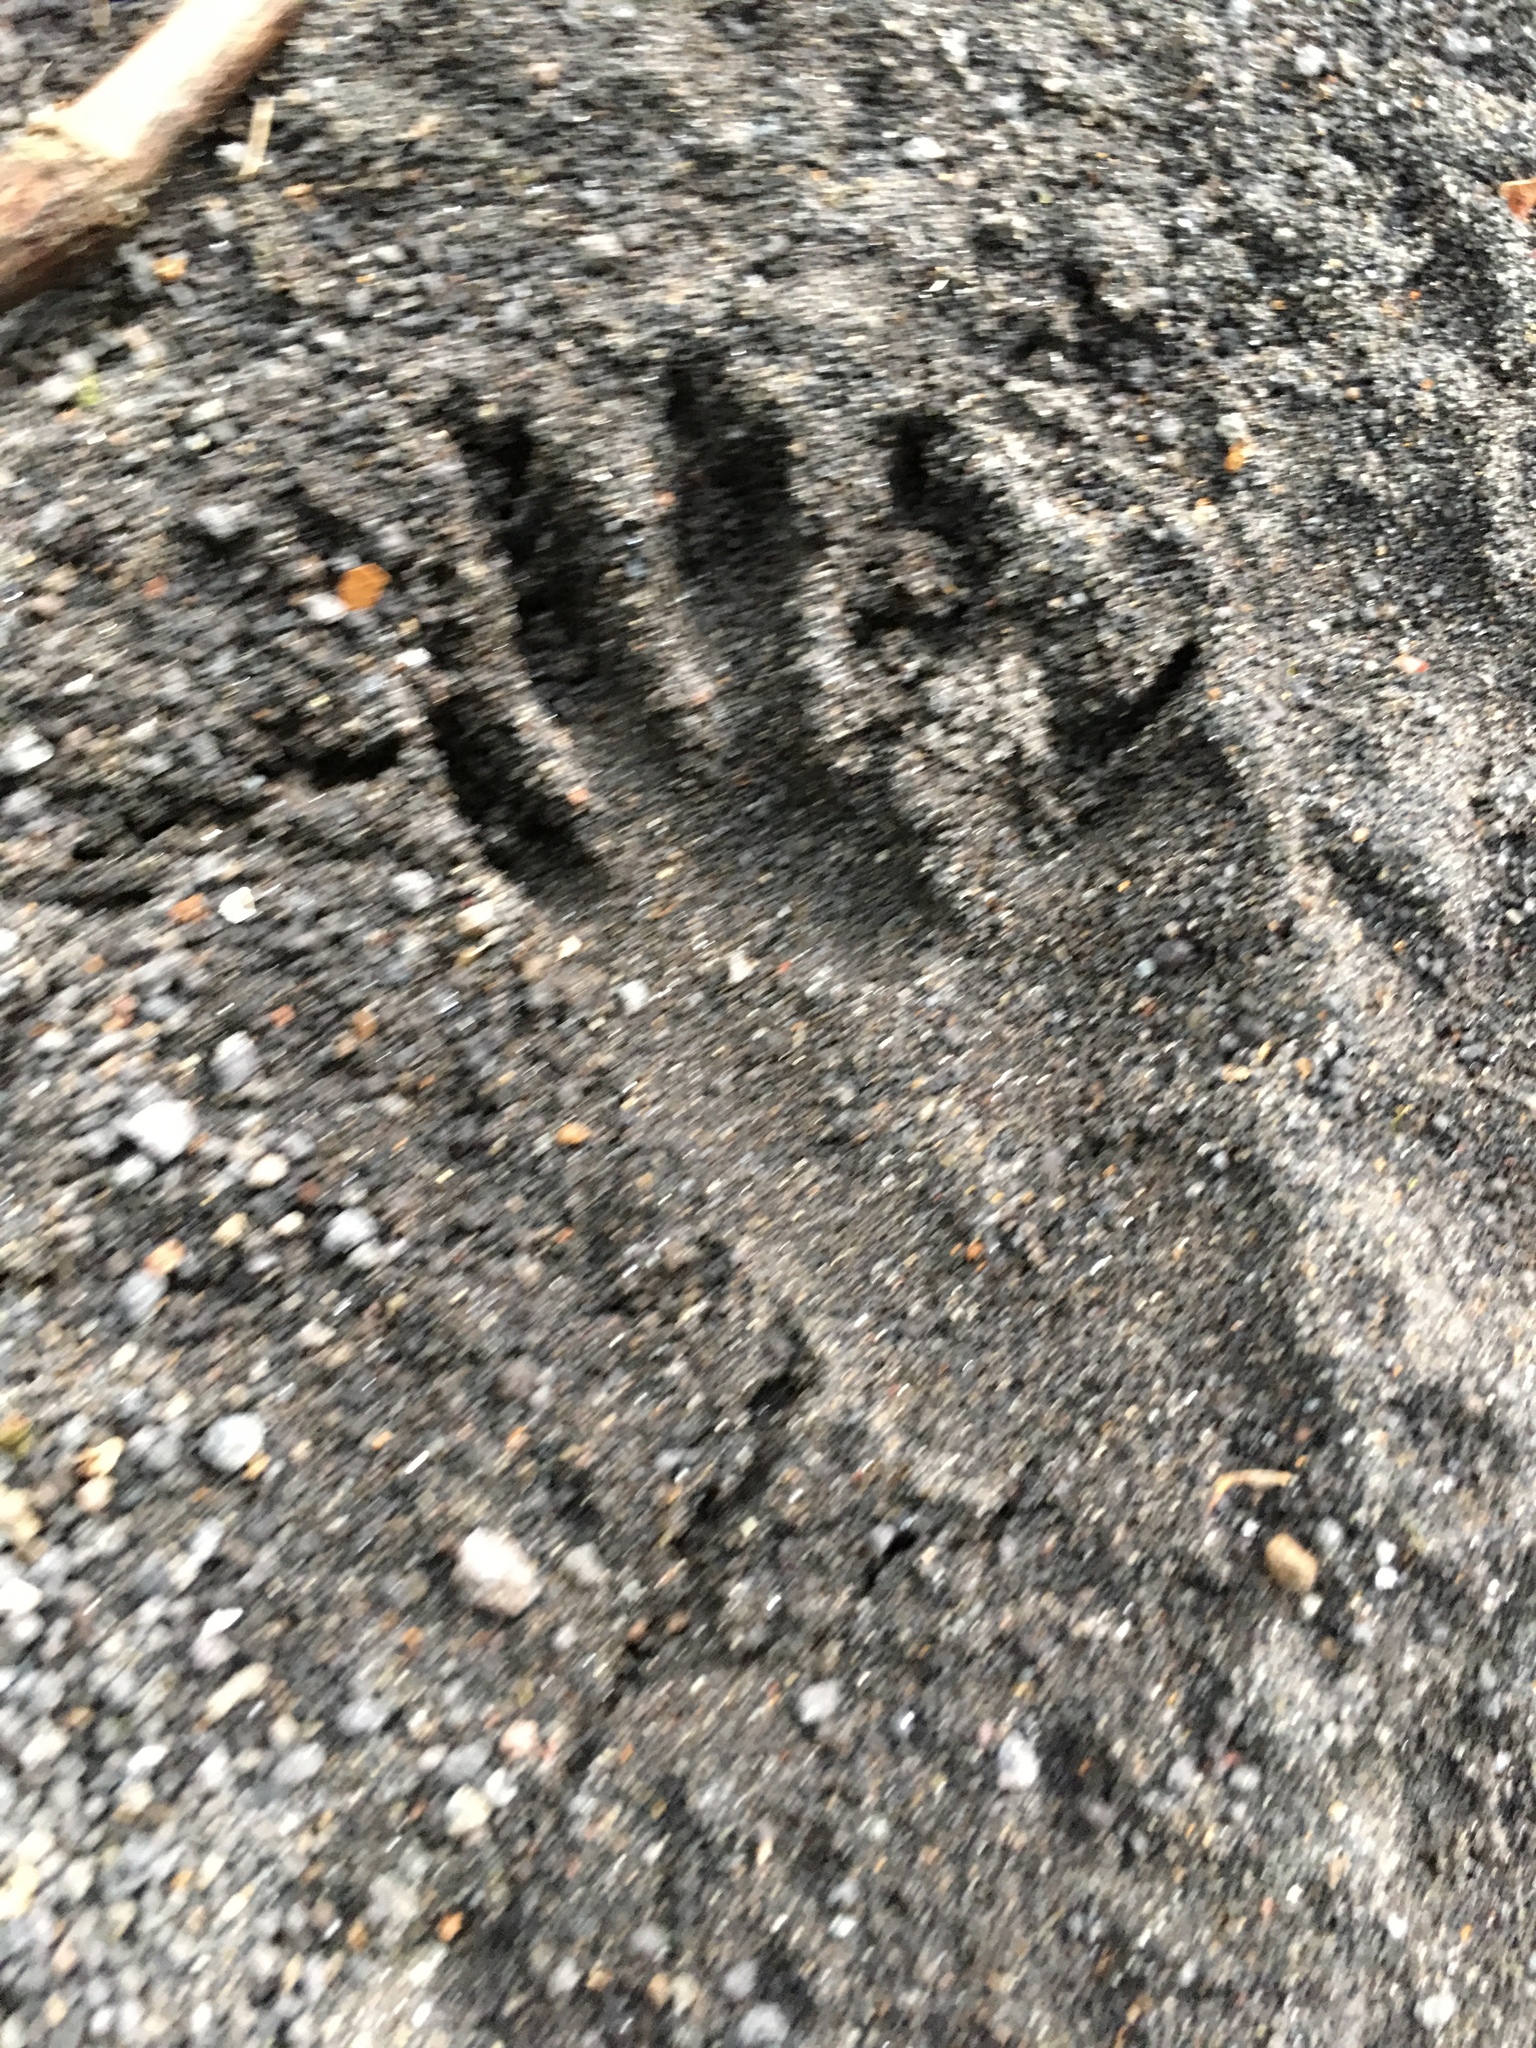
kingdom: Animalia
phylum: Chordata
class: Mammalia
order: Carnivora
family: Procyonidae
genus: Procyon
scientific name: Procyon lotor
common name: Raccoon
